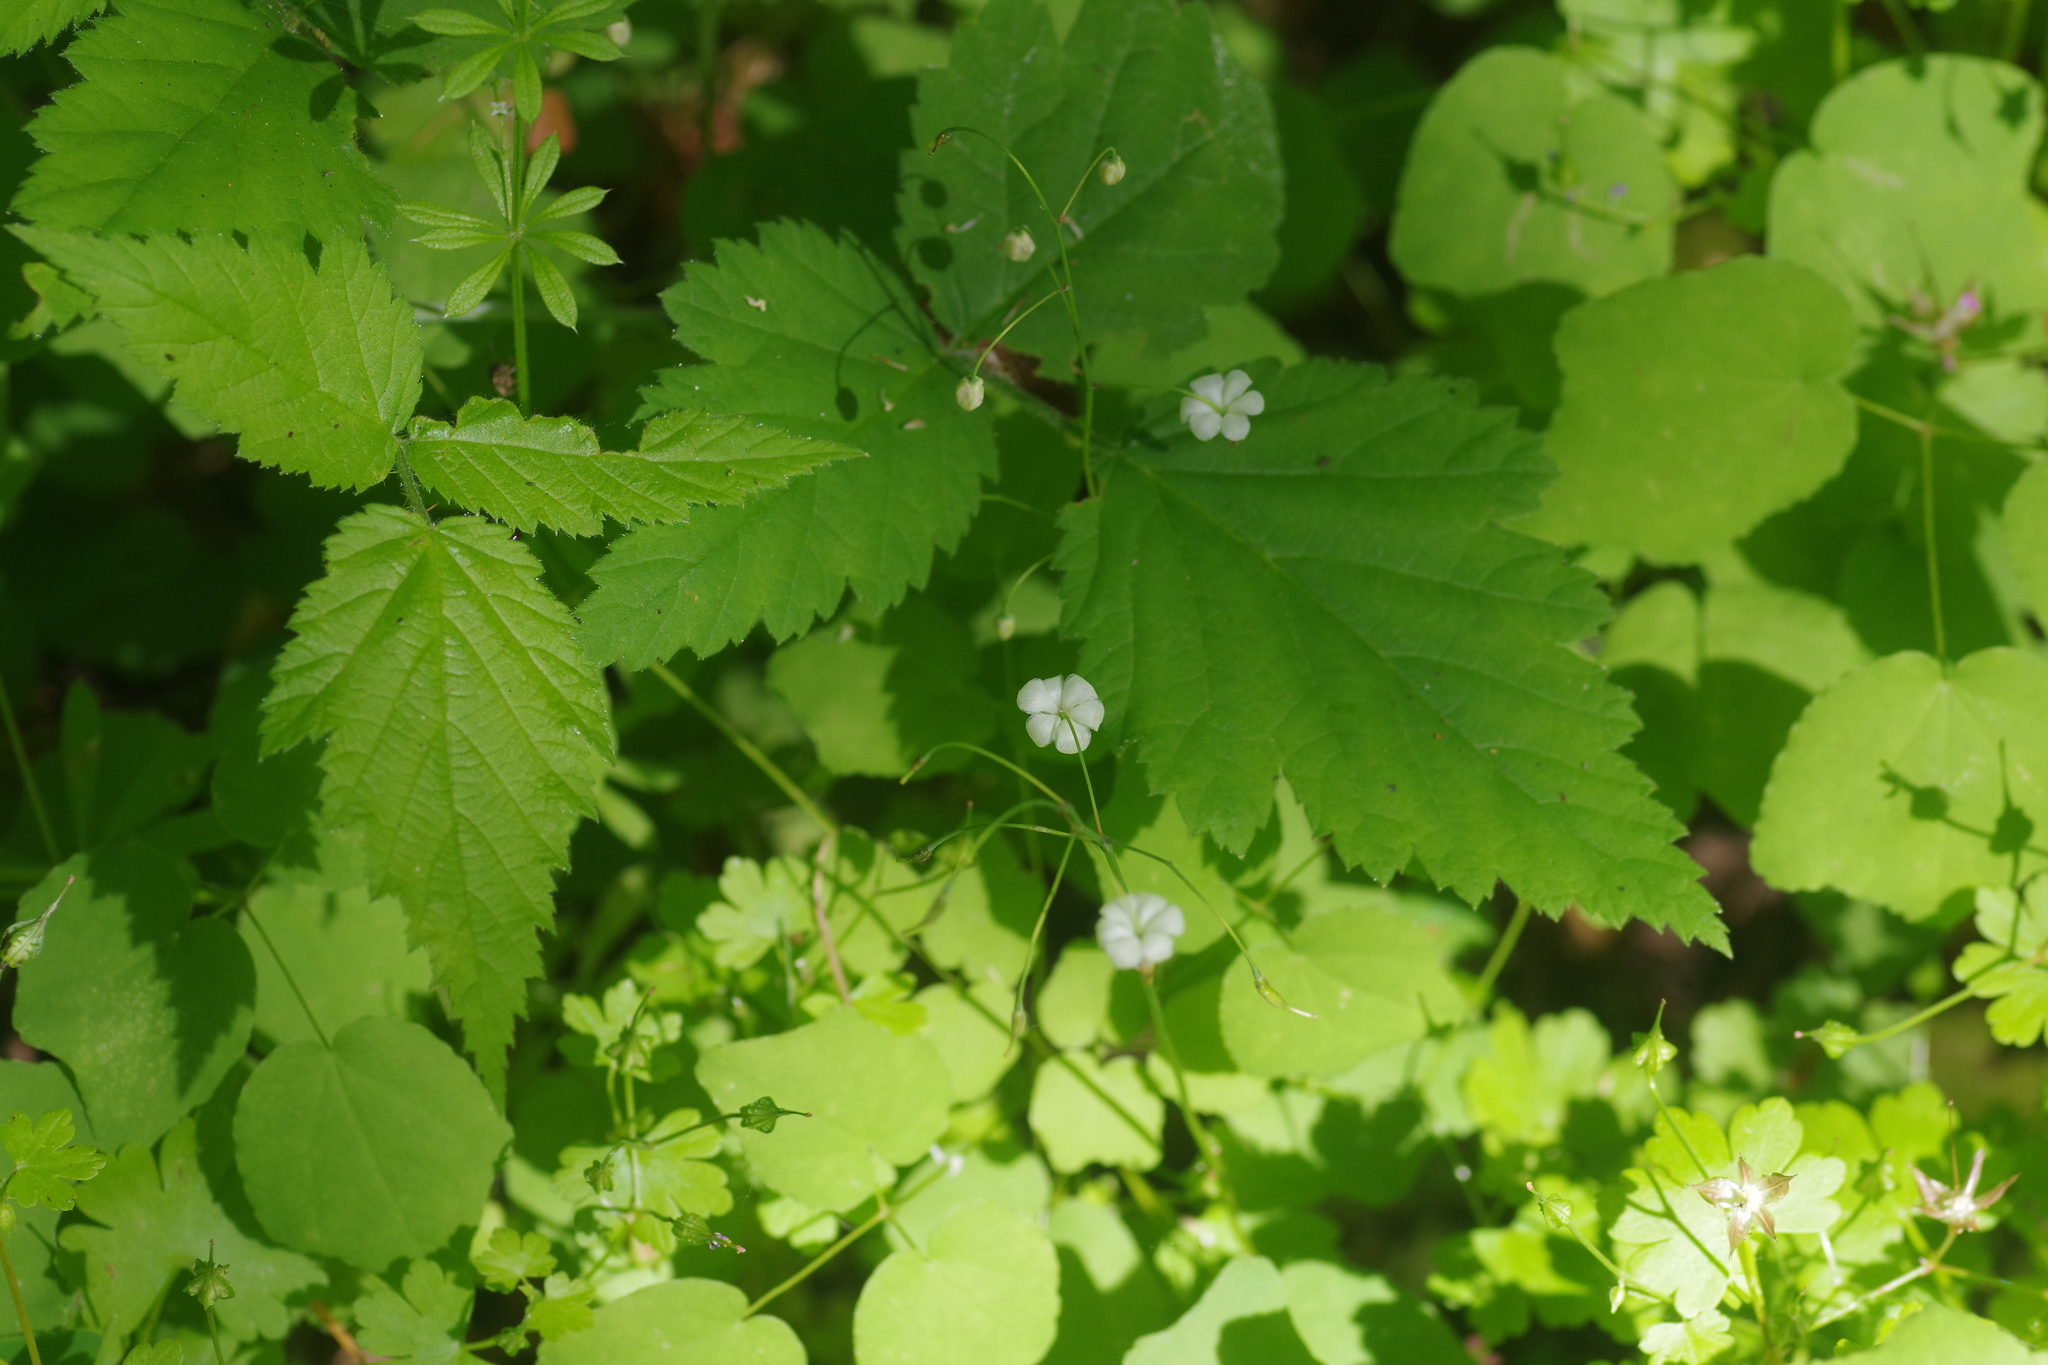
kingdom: Plantae
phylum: Tracheophyta
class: Magnoliopsida
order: Ranunculales
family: Berberidaceae
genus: Vancouveria
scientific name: Vancouveria hexandra
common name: Northern inside-out-flower
